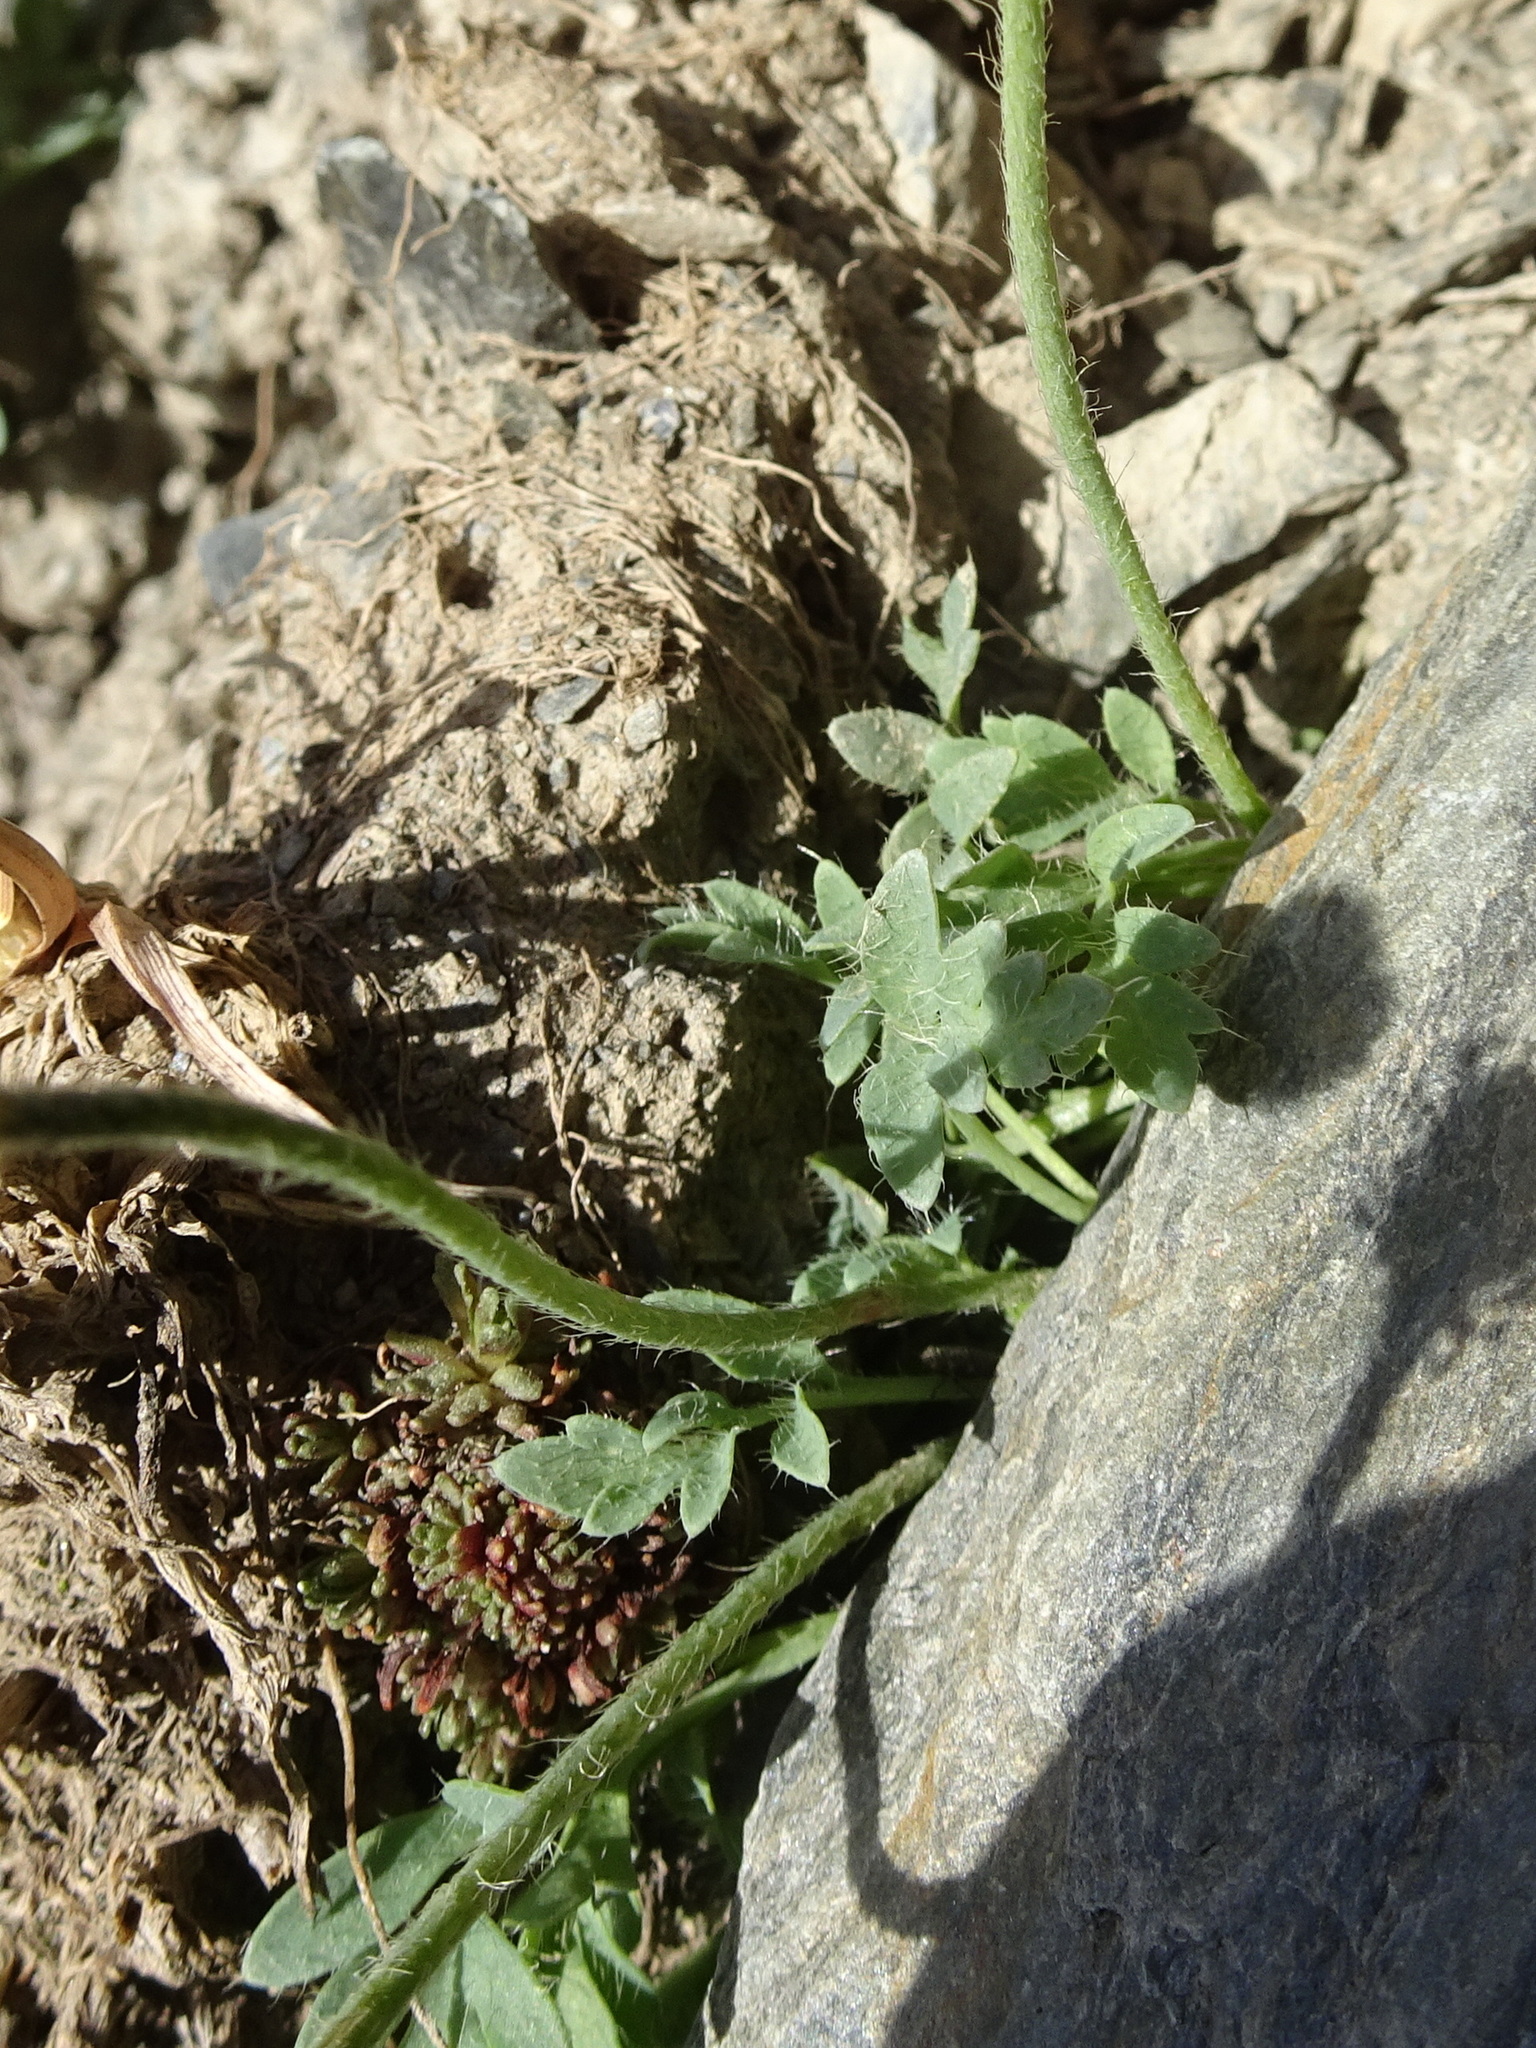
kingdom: Plantae
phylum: Tracheophyta
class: Magnoliopsida
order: Ranunculales
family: Papaveraceae
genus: Papaver
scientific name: Papaver alpinum
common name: Austrian poppy
